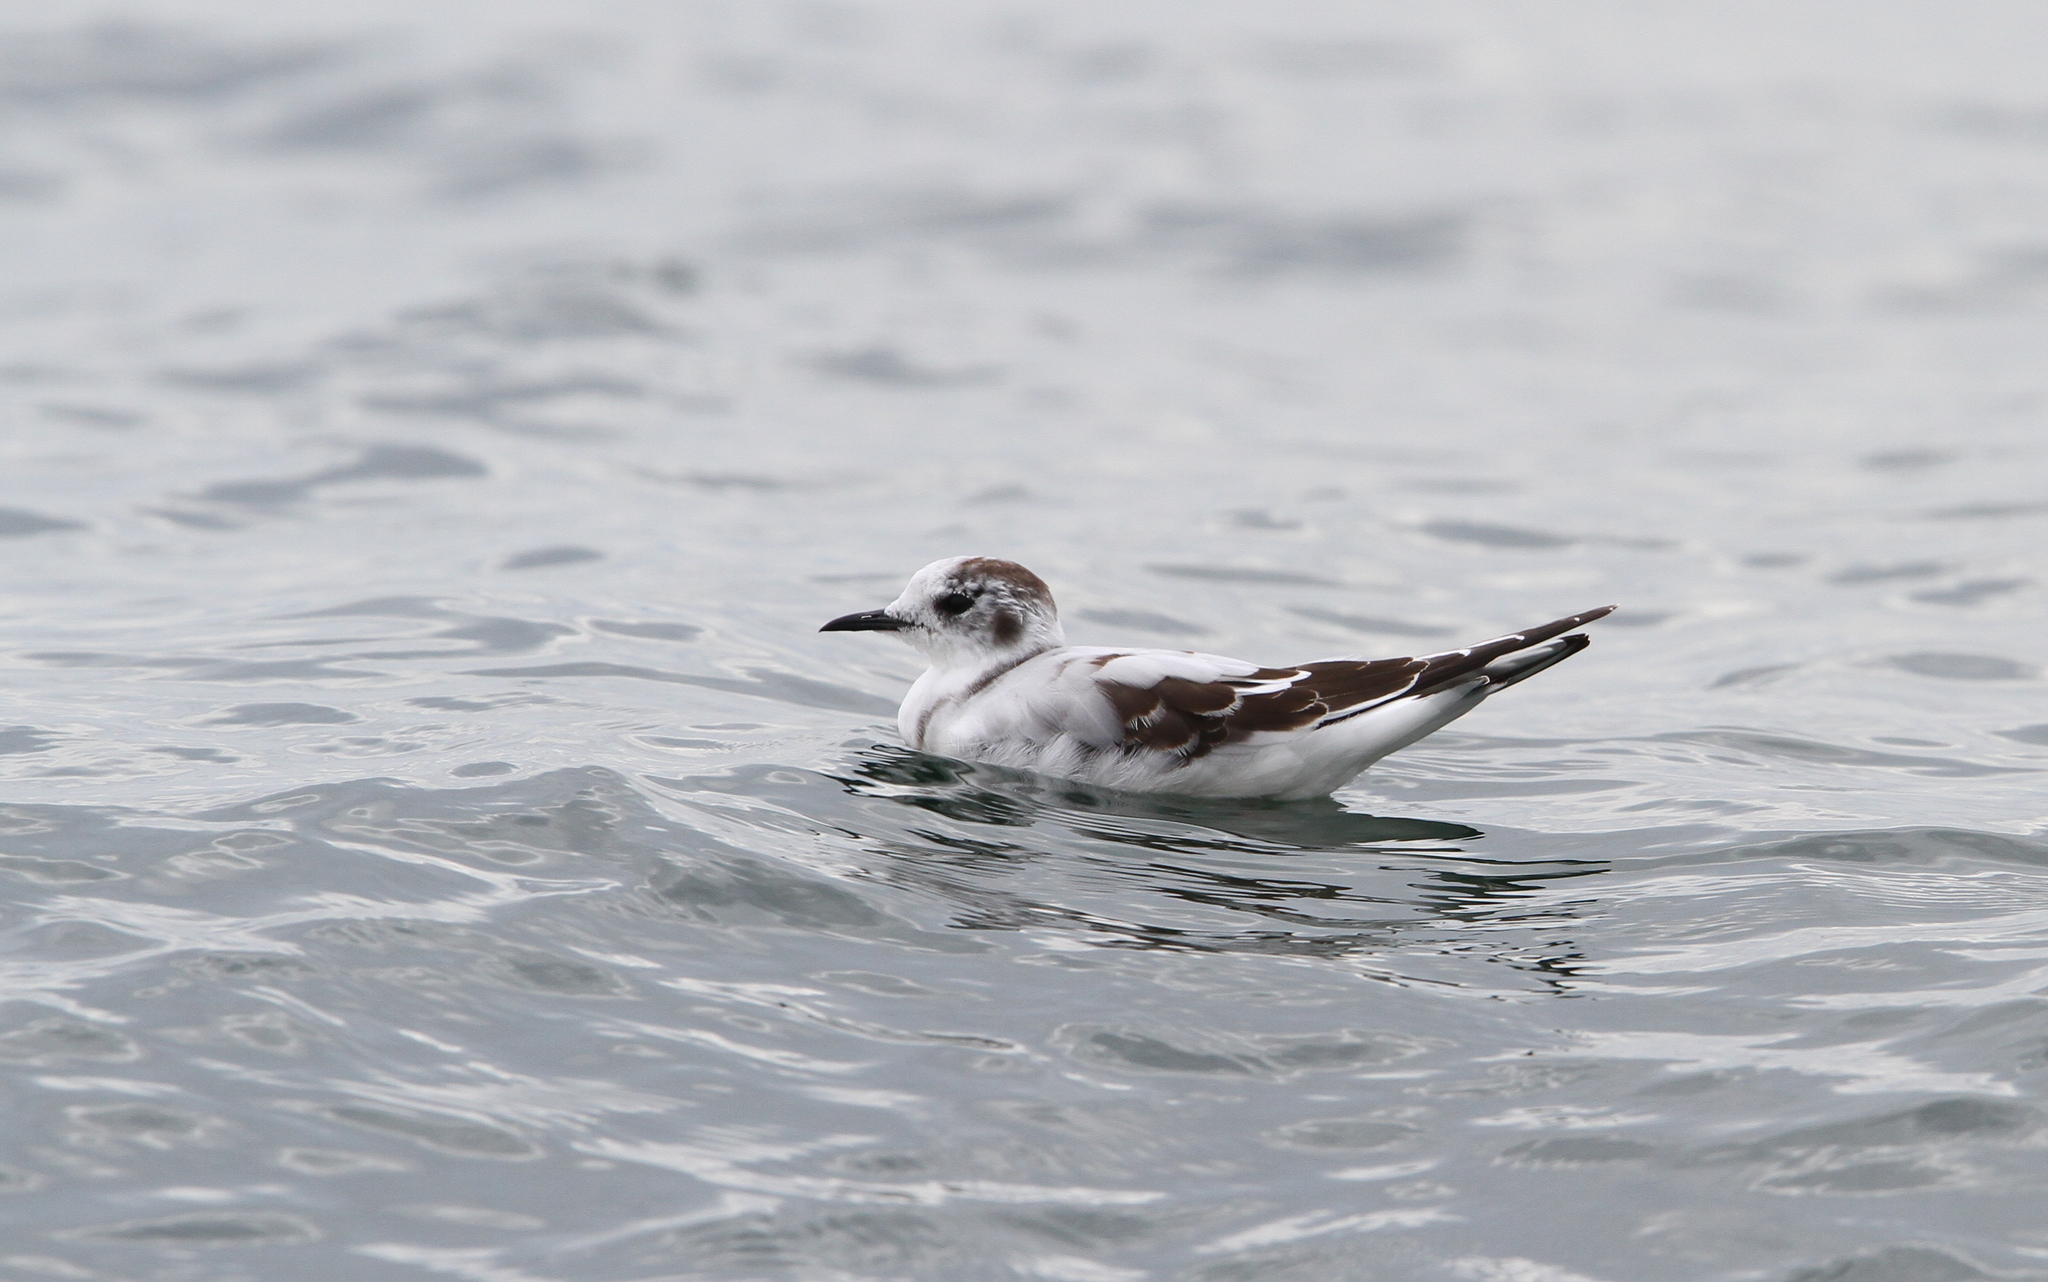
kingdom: Animalia
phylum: Chordata
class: Aves
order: Charadriiformes
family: Laridae
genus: Hydrocoloeus
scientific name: Hydrocoloeus minutus
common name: Little gull
